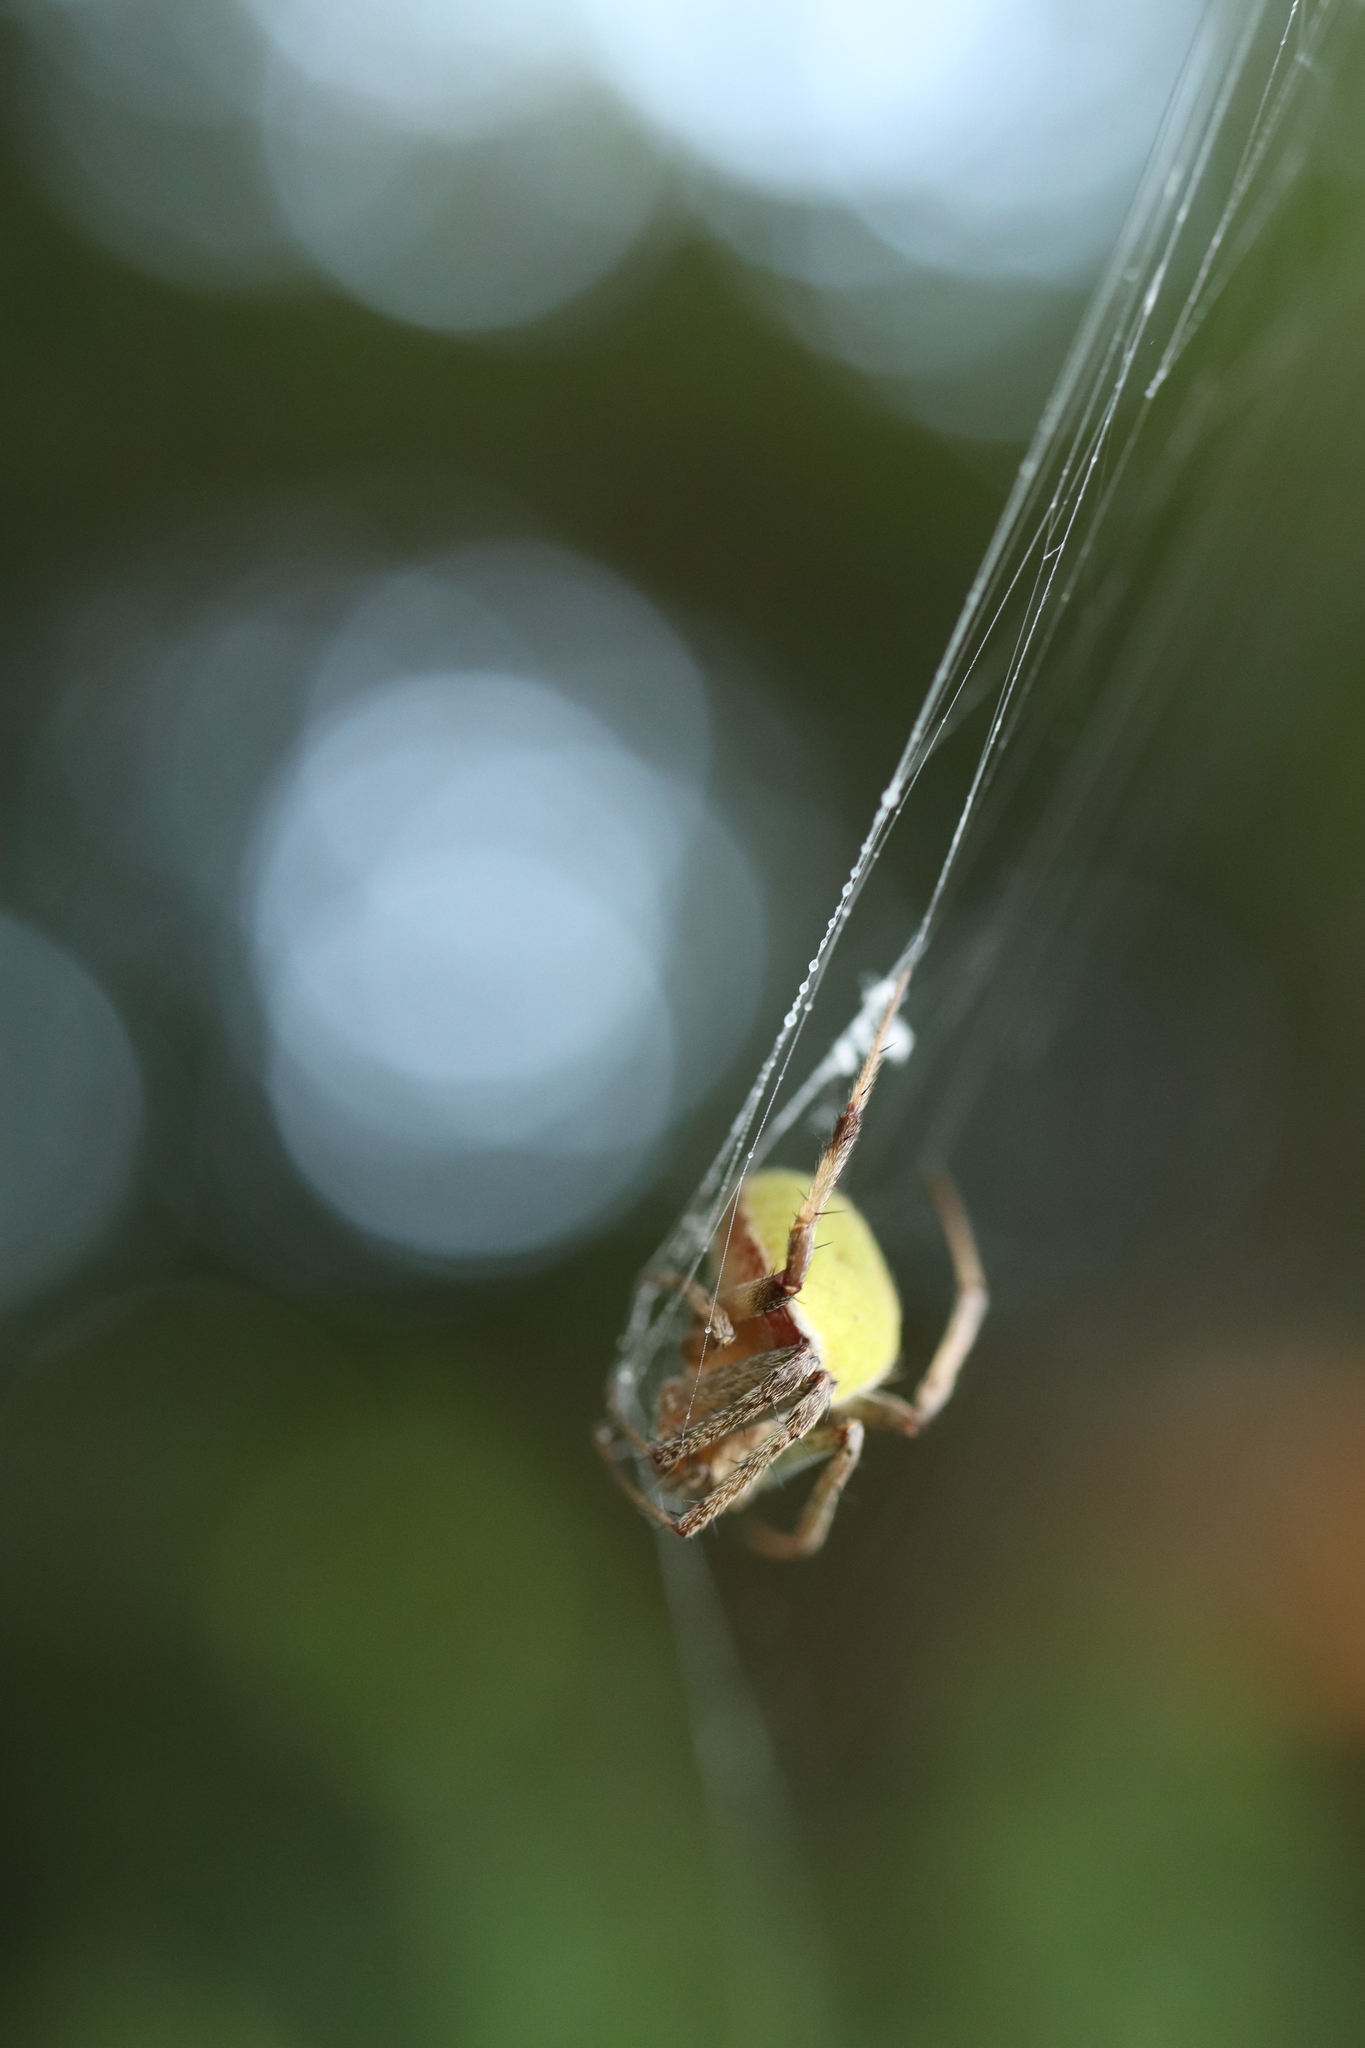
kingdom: Animalia
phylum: Arthropoda
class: Arachnida
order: Araneae
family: Araneidae
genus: Neoscona
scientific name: Neoscona mellotteei
